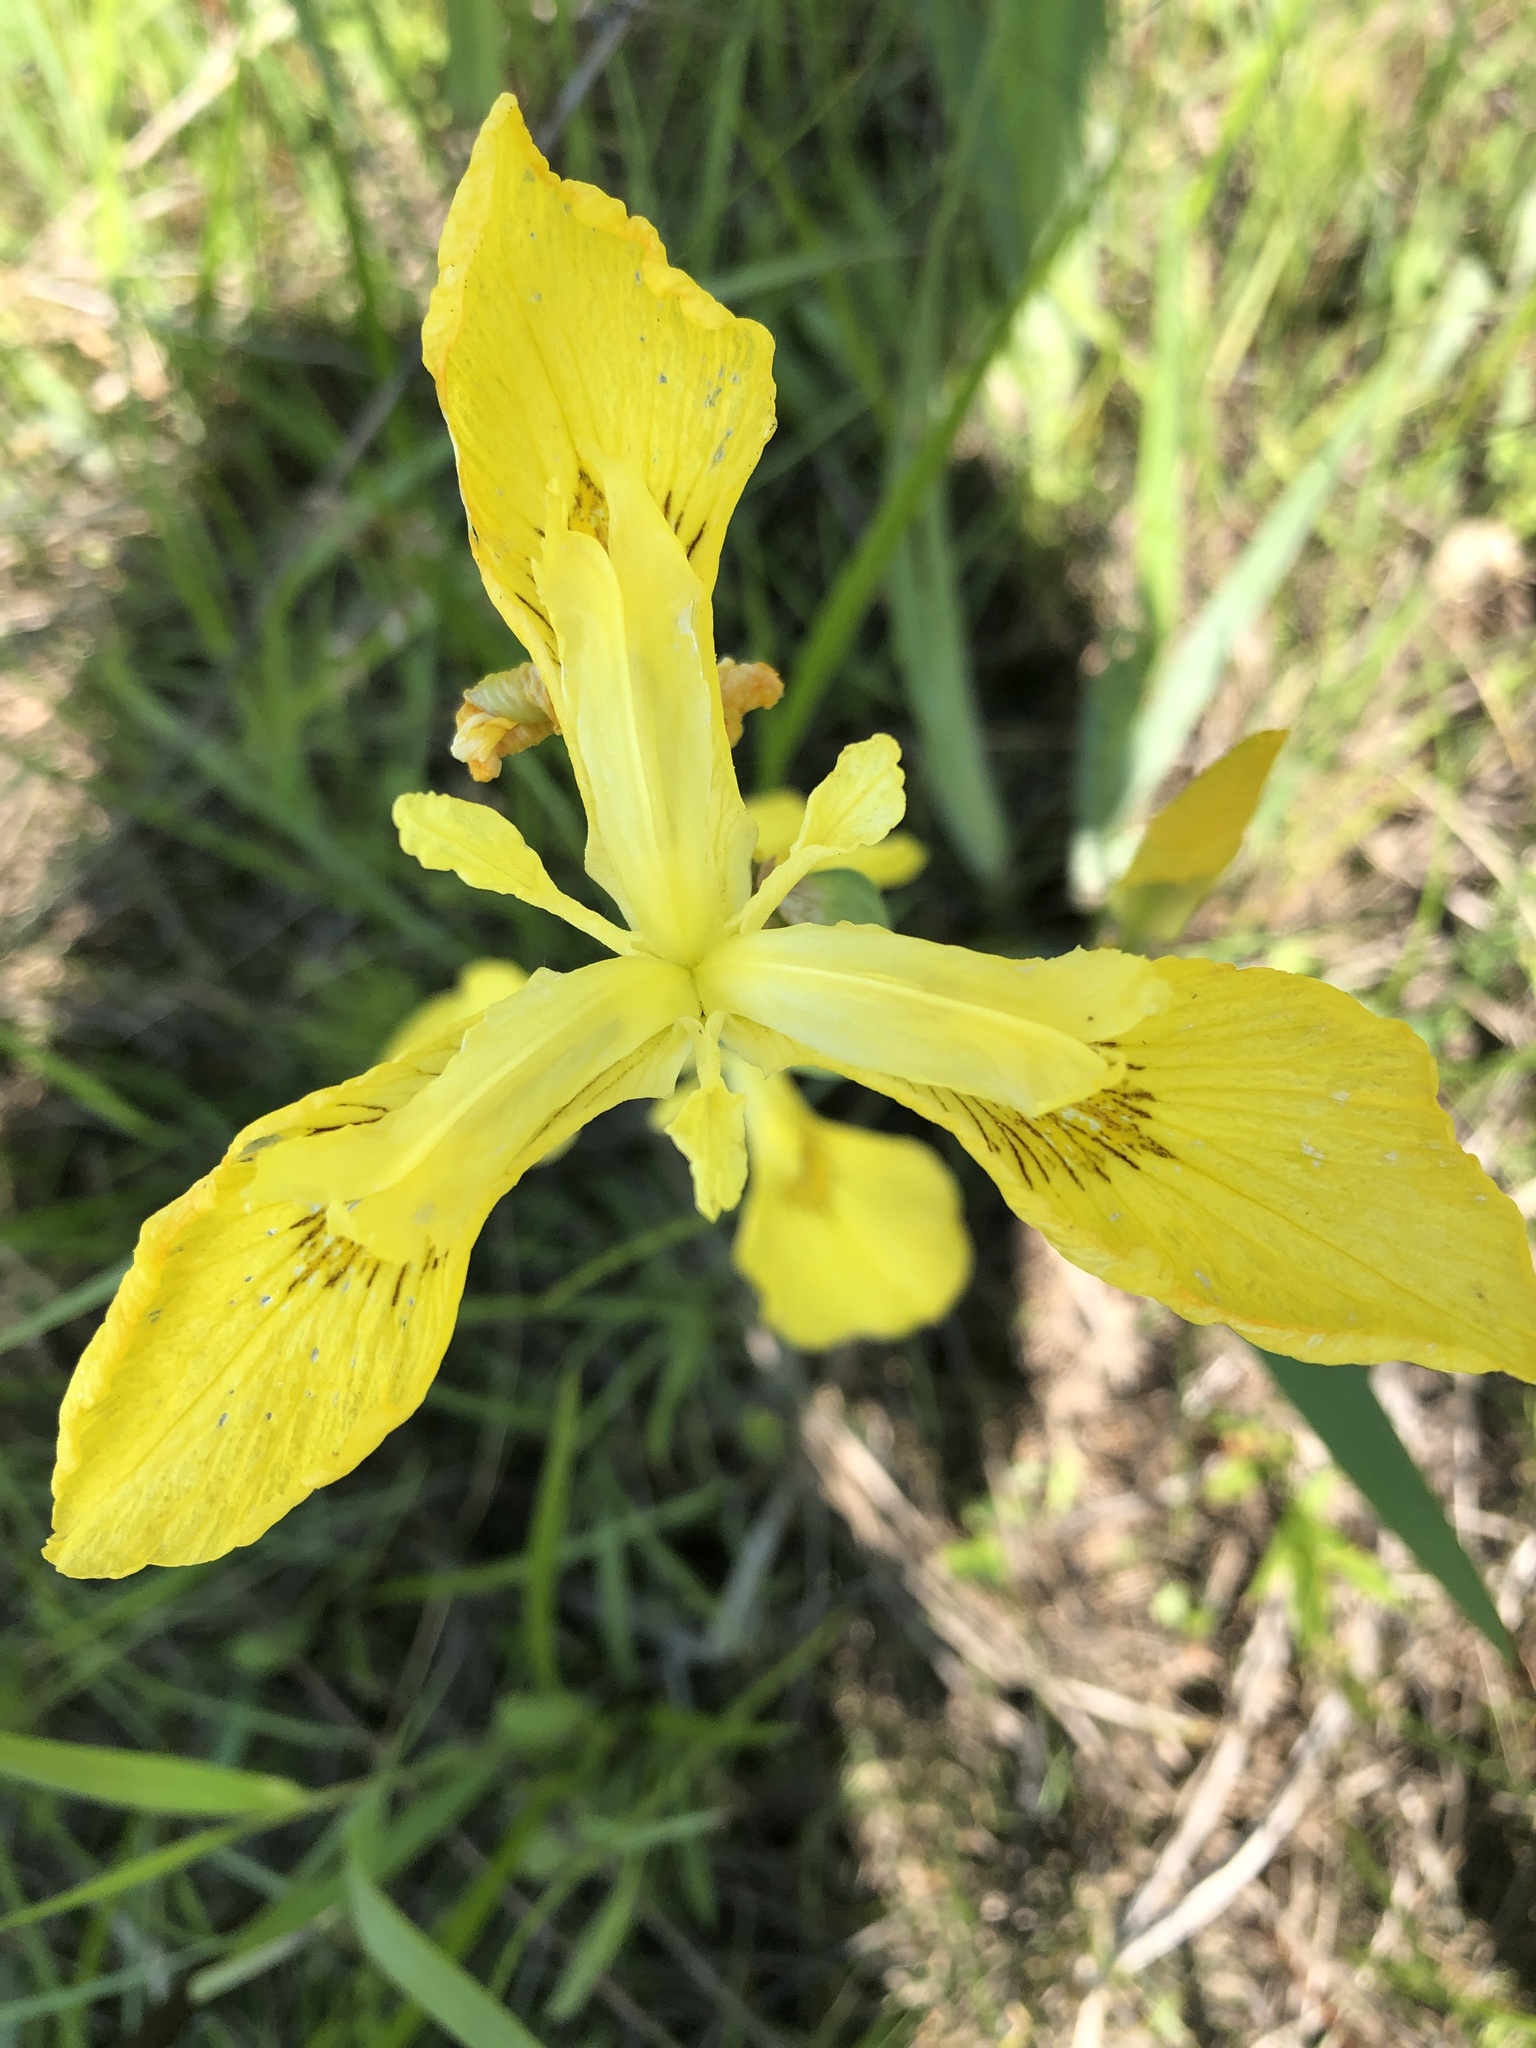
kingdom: Plantae
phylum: Tracheophyta
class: Liliopsida
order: Asparagales
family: Iridaceae
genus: Iris
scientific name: Iris pseudacorus
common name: Yellow flag
